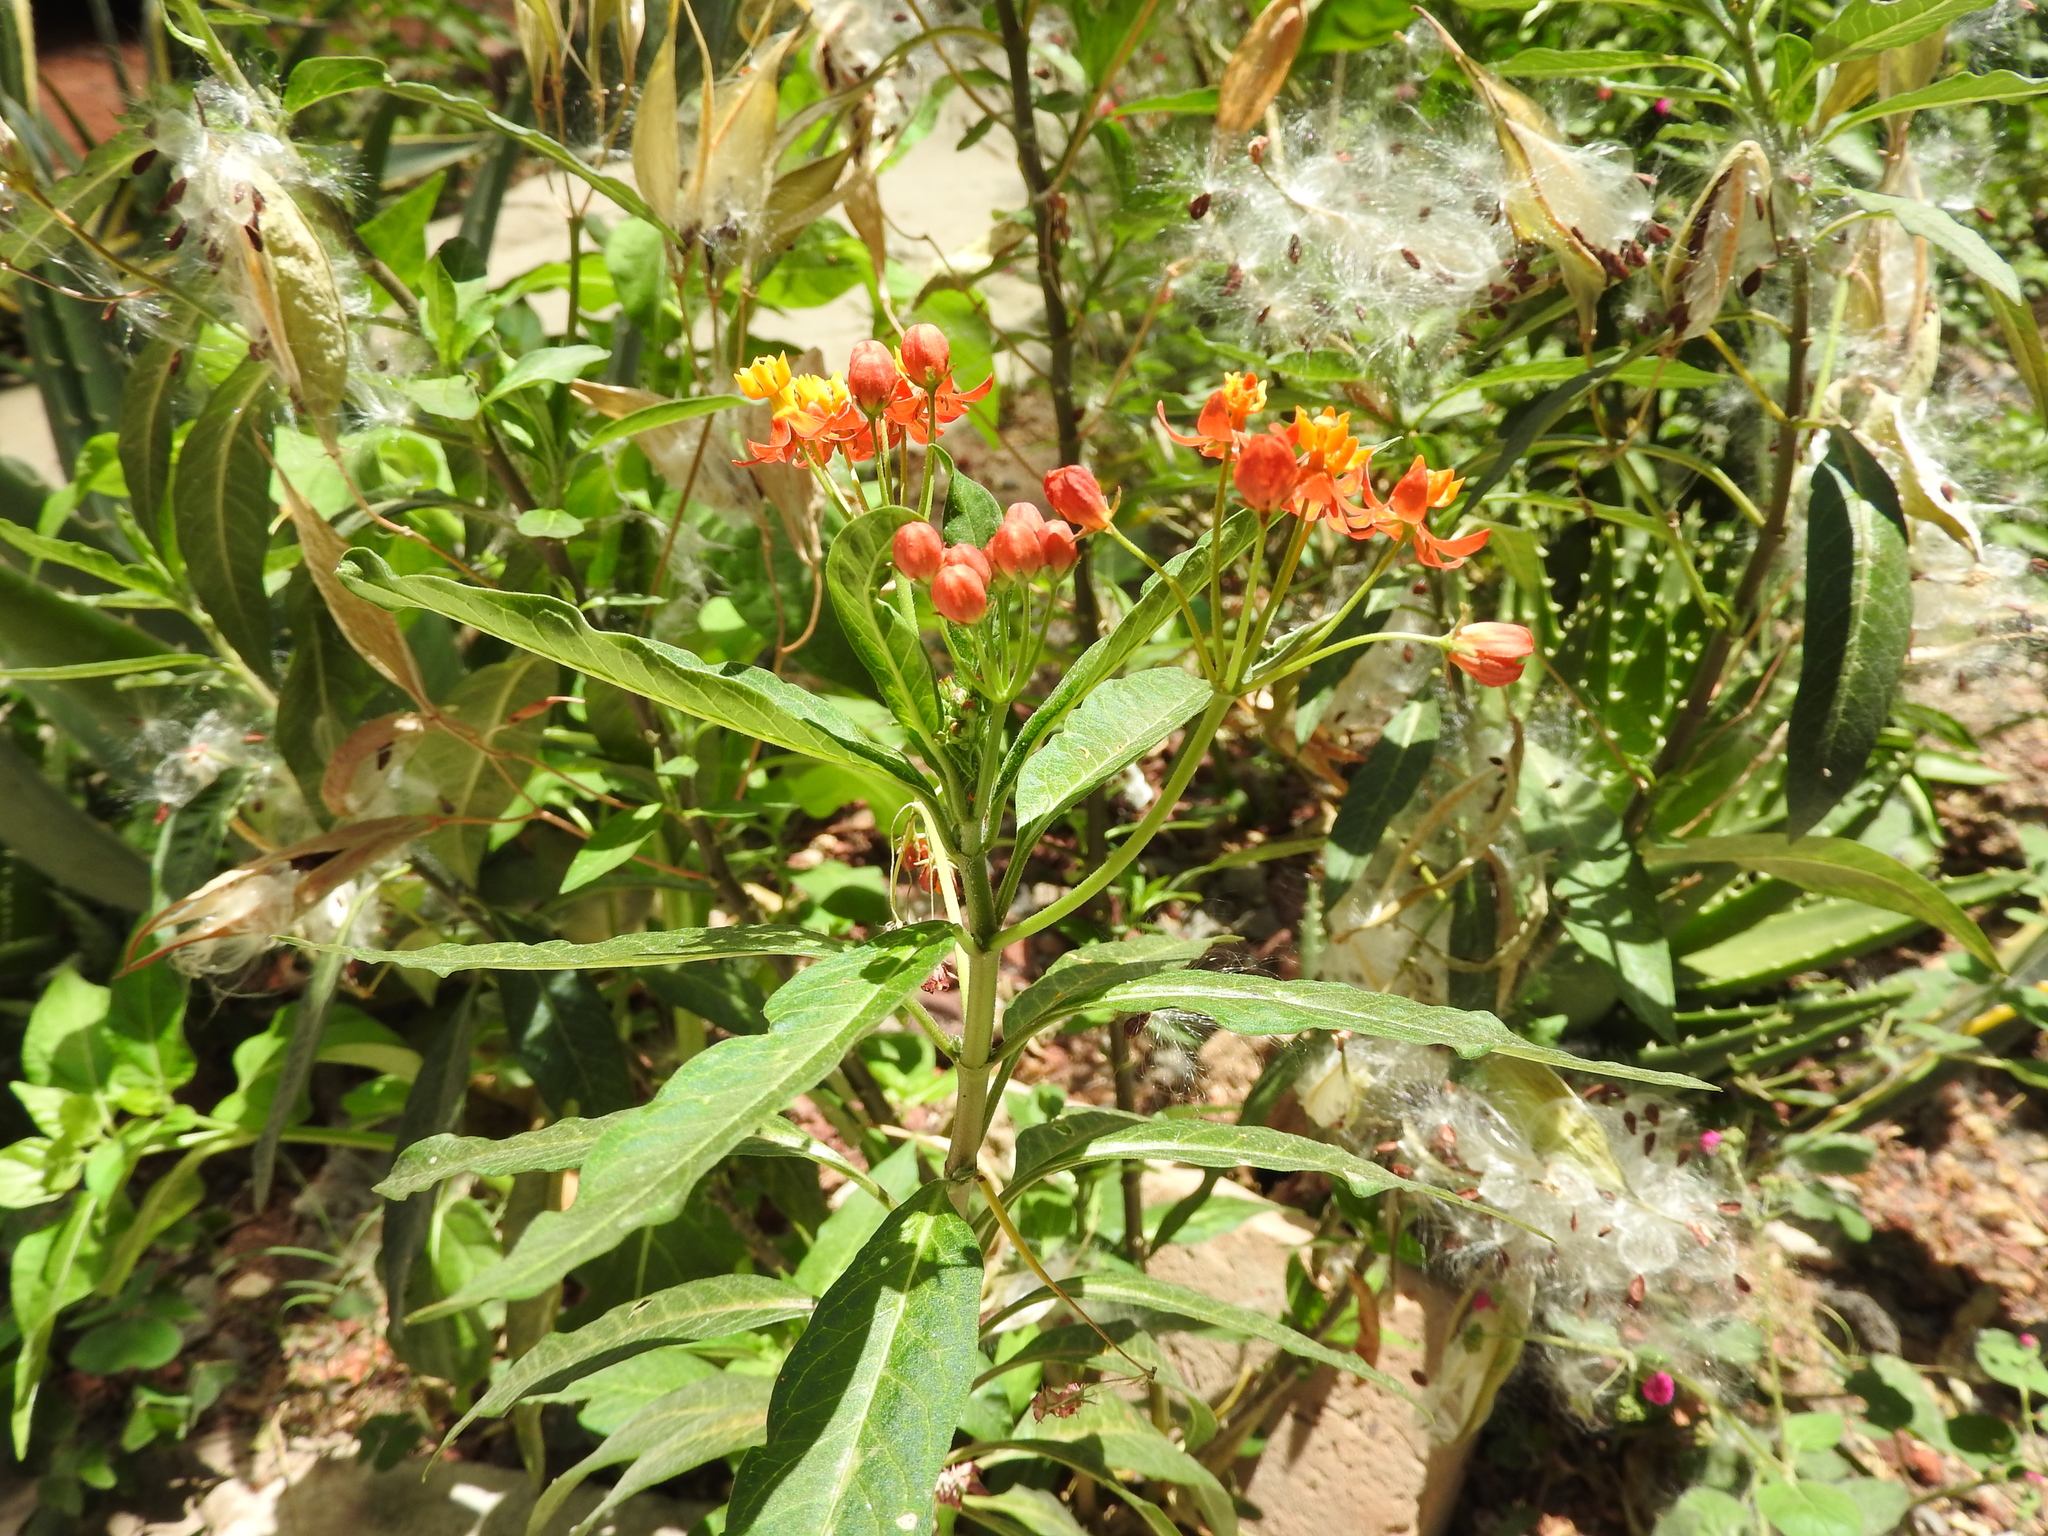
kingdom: Plantae
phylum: Tracheophyta
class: Magnoliopsida
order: Gentianales
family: Apocynaceae
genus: Asclepias
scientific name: Asclepias curassavica
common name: Bloodflower
